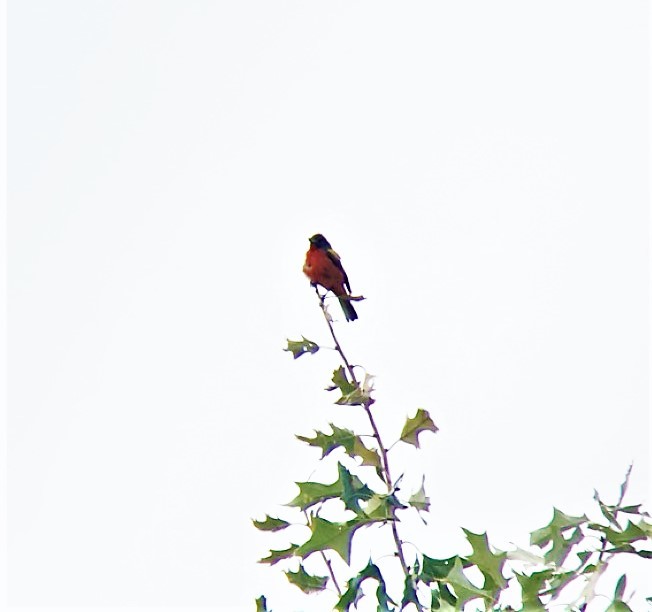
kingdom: Animalia
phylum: Chordata
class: Aves
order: Passeriformes
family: Cardinalidae
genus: Passerina
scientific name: Passerina ciris
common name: Painted bunting
